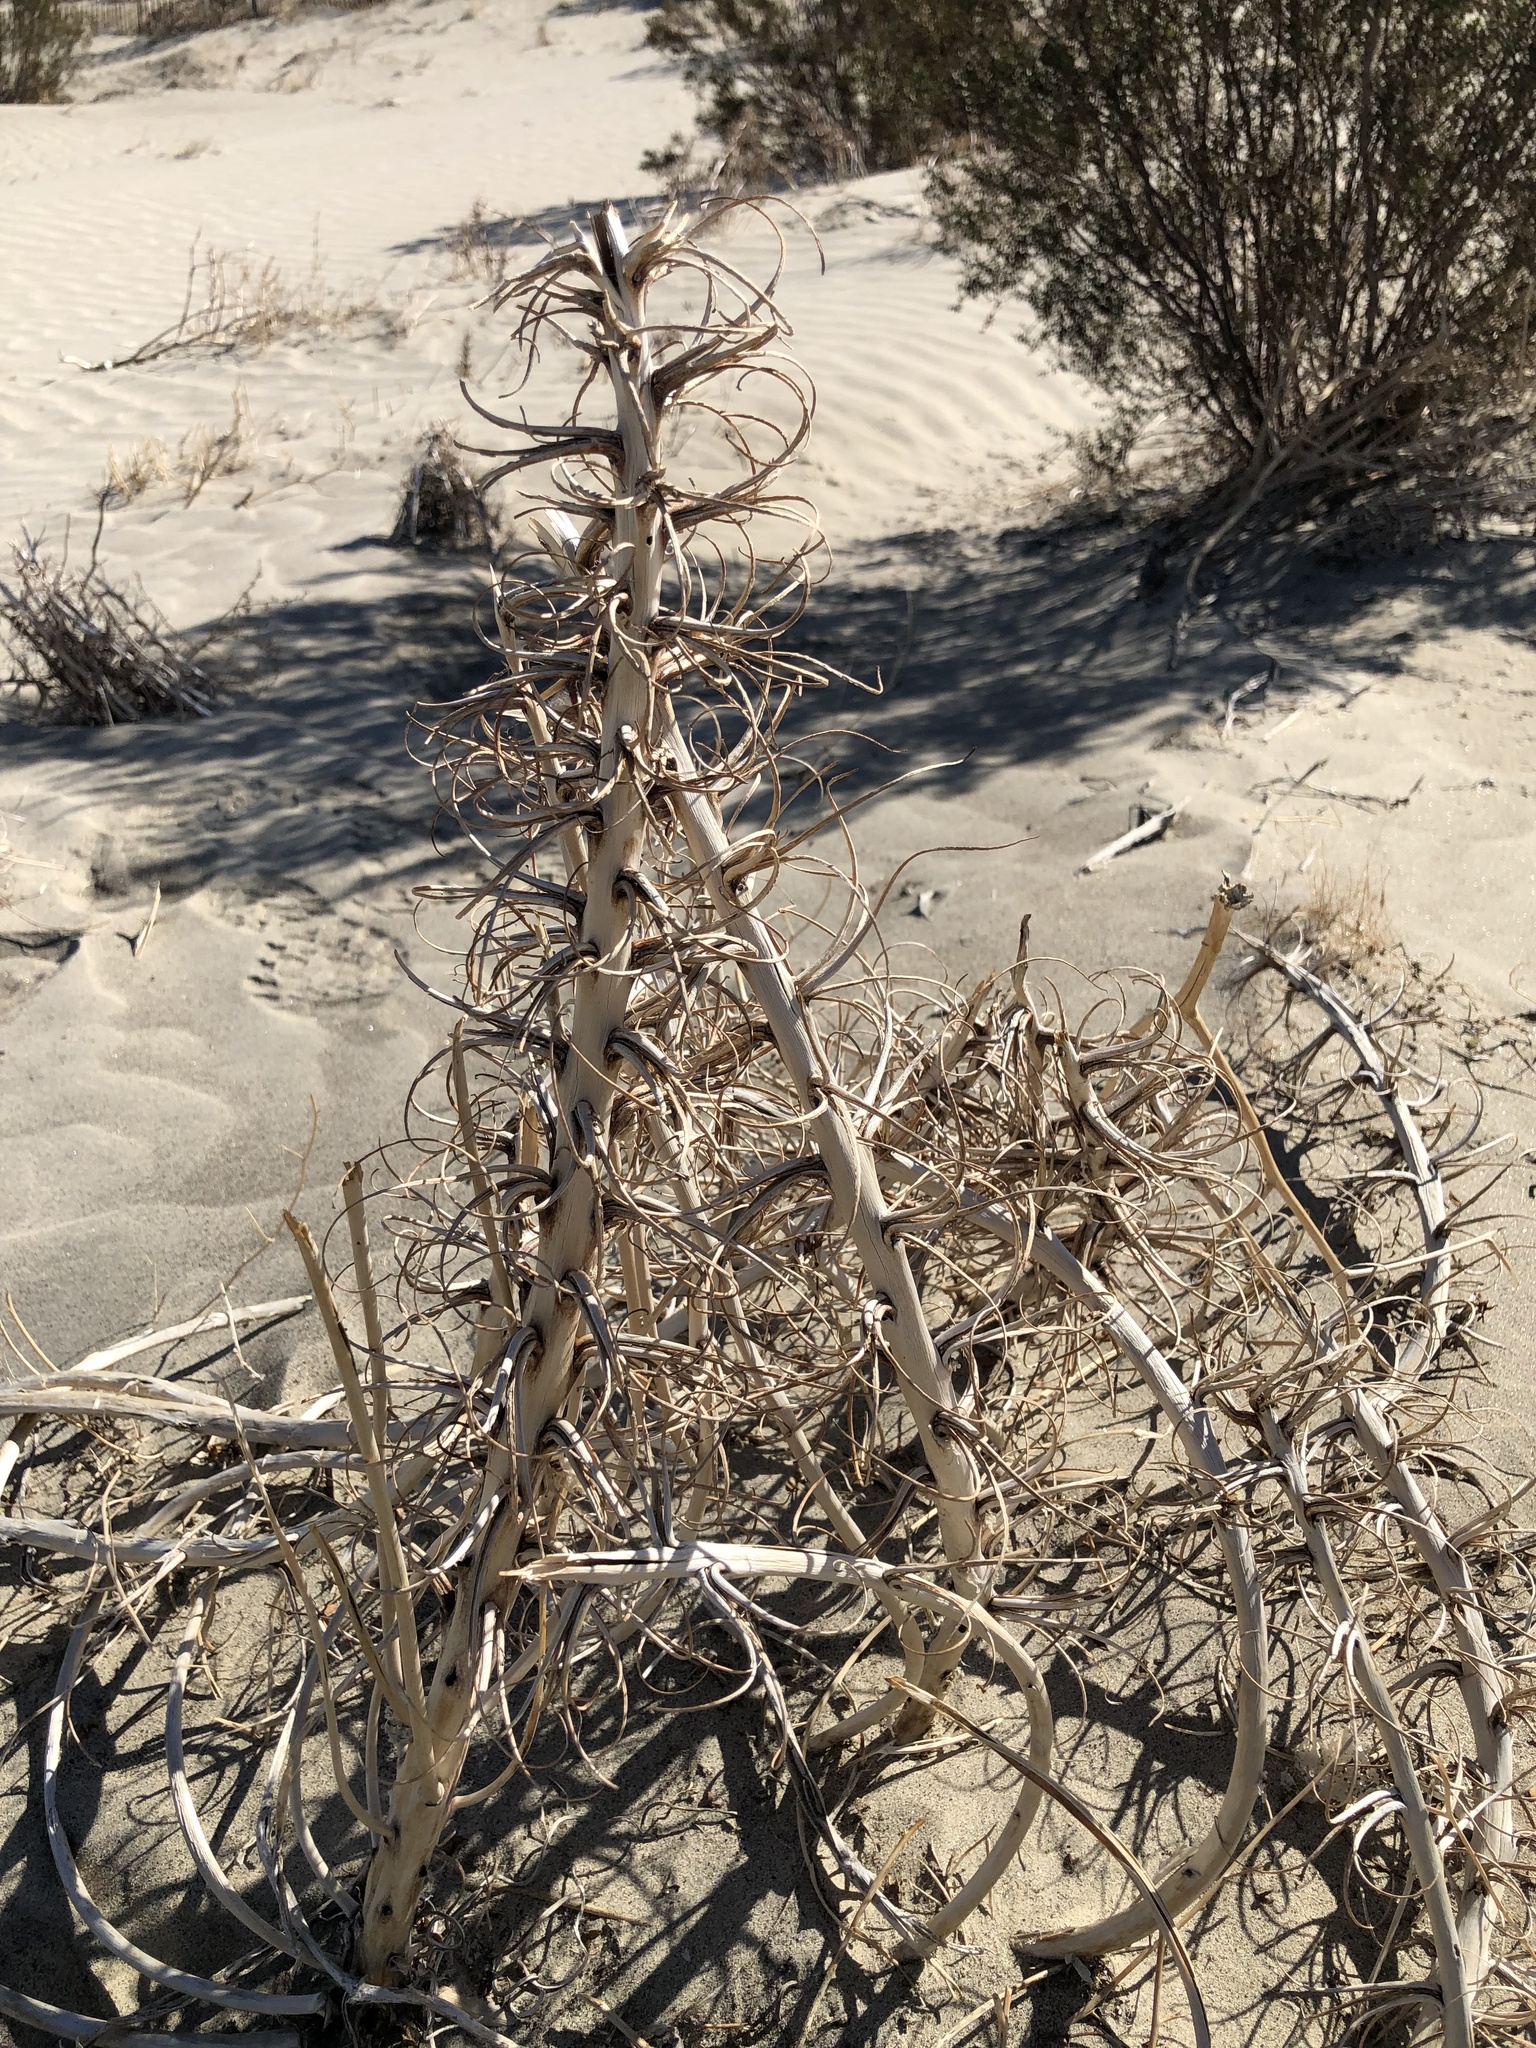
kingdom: Plantae
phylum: Tracheophyta
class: Magnoliopsida
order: Myrtales
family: Onagraceae
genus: Oenothera
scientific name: Oenothera deltoides
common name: Basket evening-primrose
